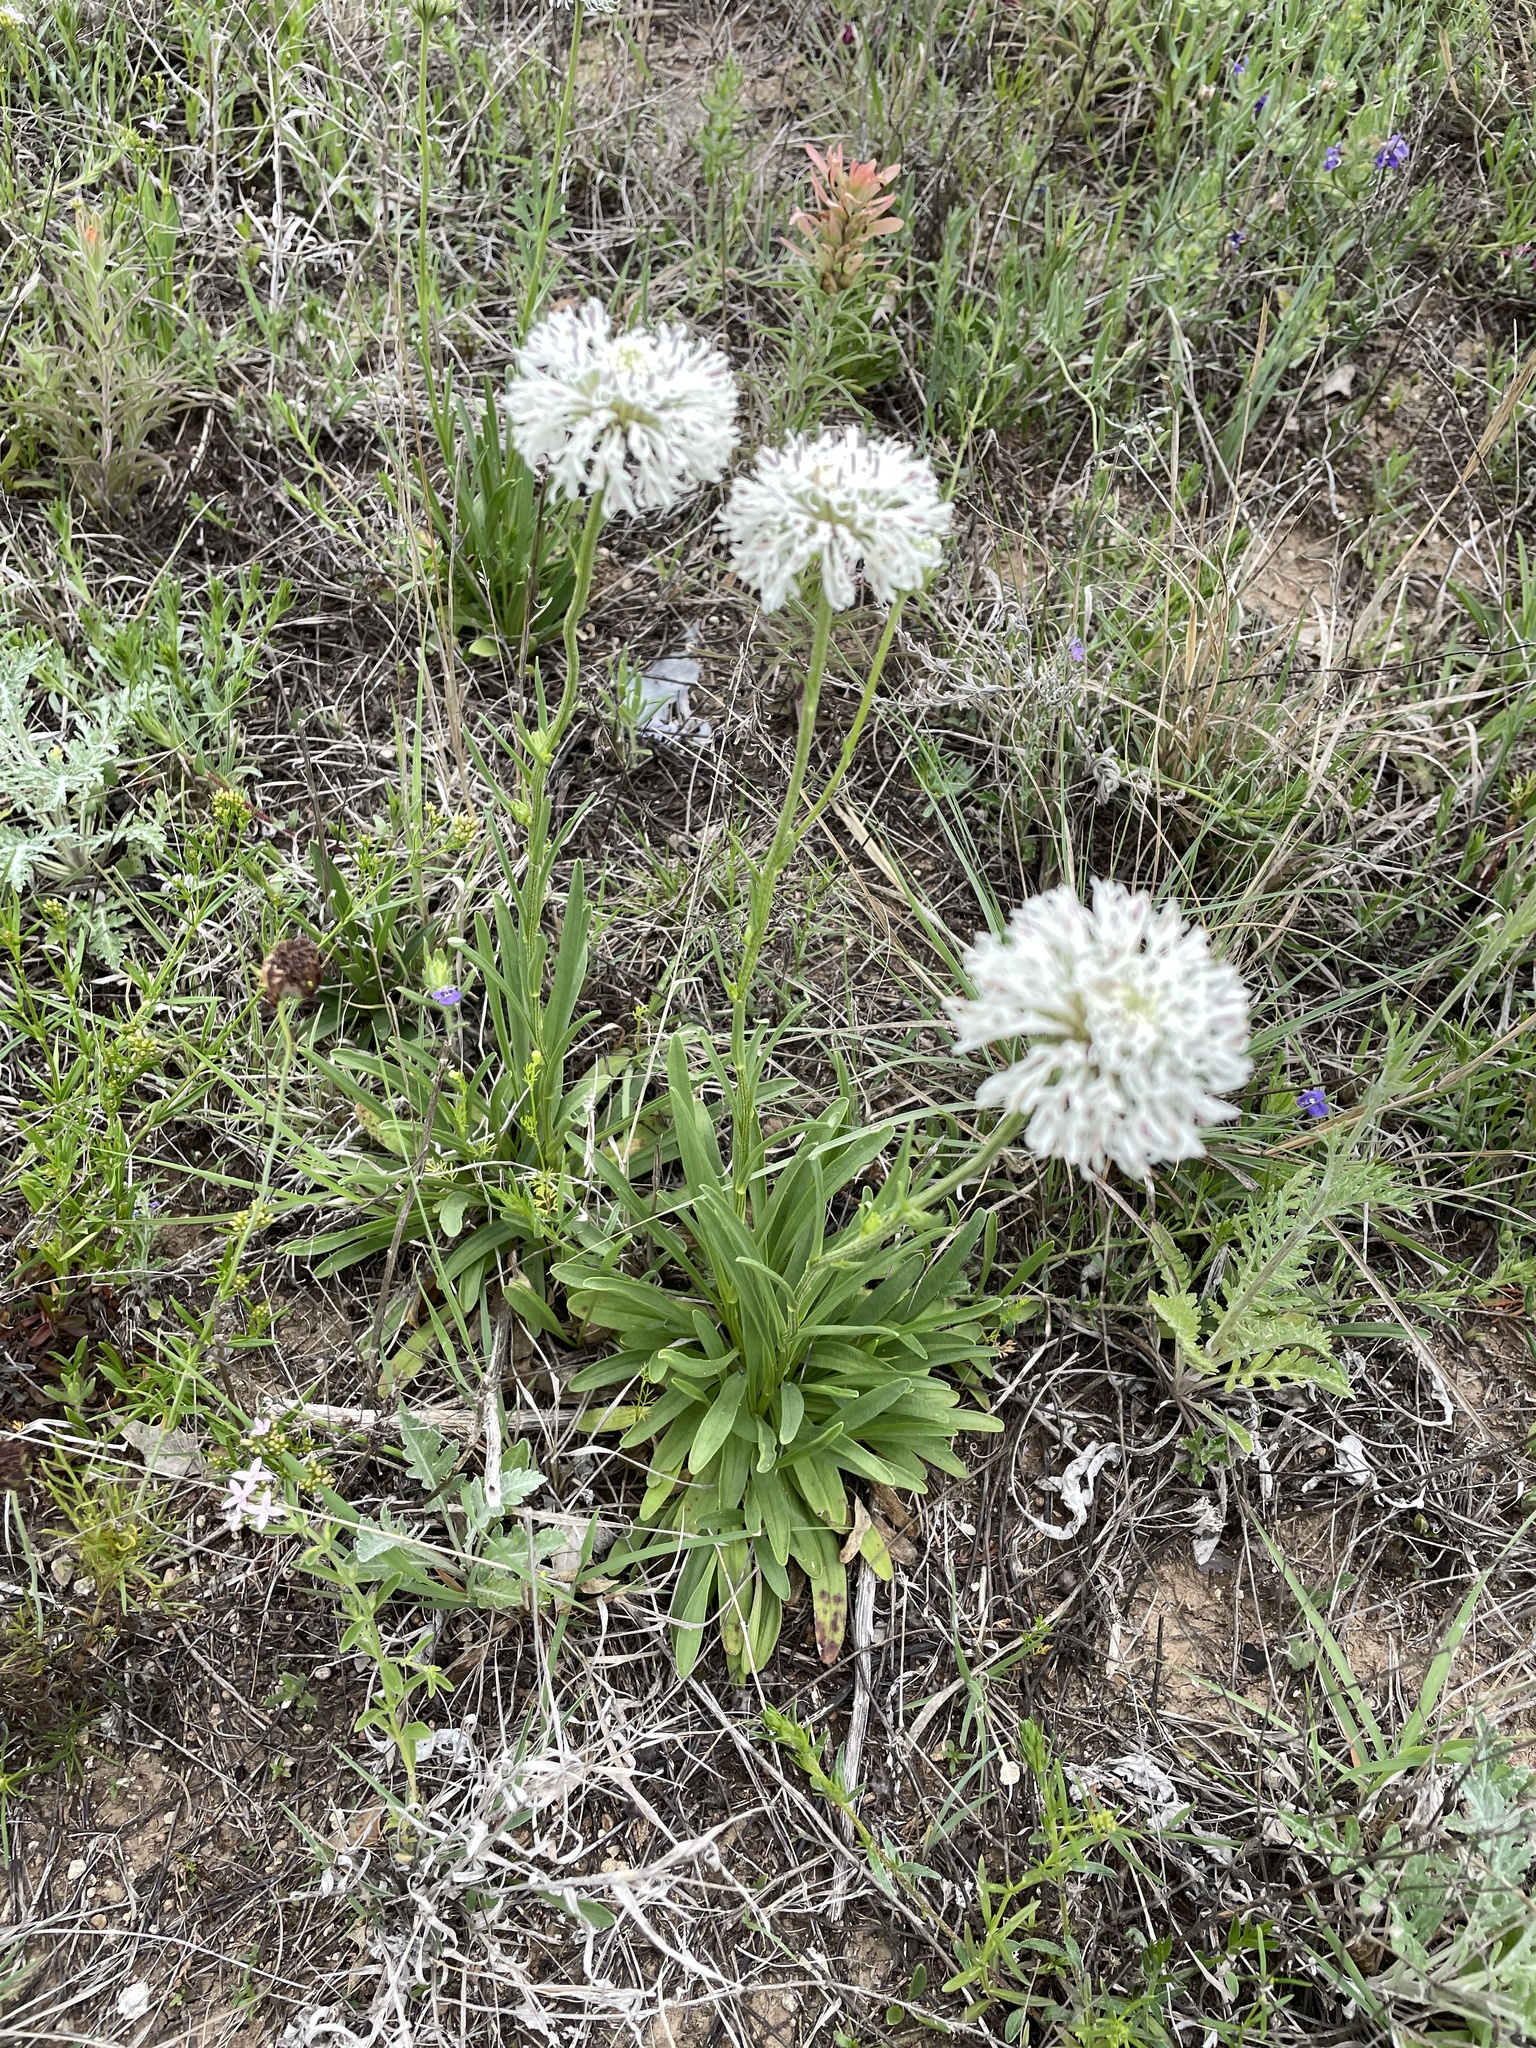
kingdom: Plantae
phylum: Tracheophyta
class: Magnoliopsida
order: Asterales
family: Asteraceae
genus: Marshallia
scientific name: Marshallia caespitosa
